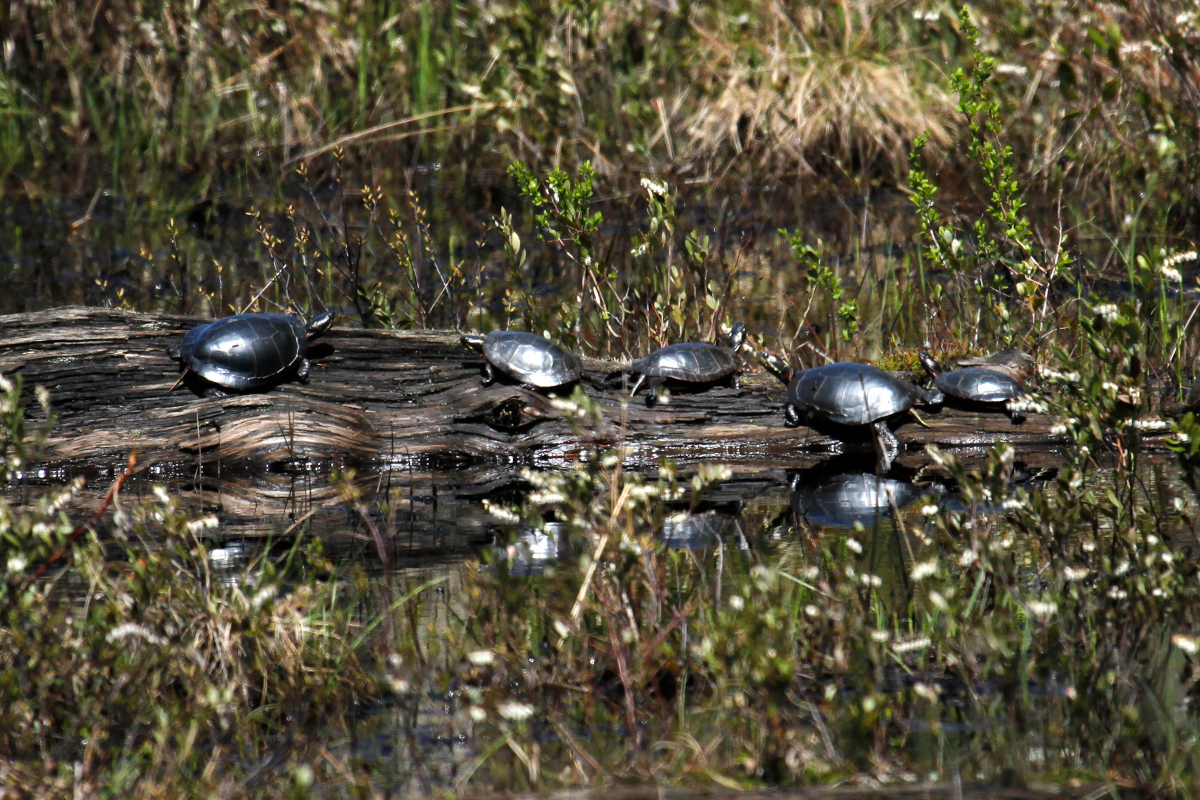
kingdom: Animalia
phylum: Chordata
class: Testudines
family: Emydidae
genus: Chrysemys
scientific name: Chrysemys picta
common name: Painted turtle
